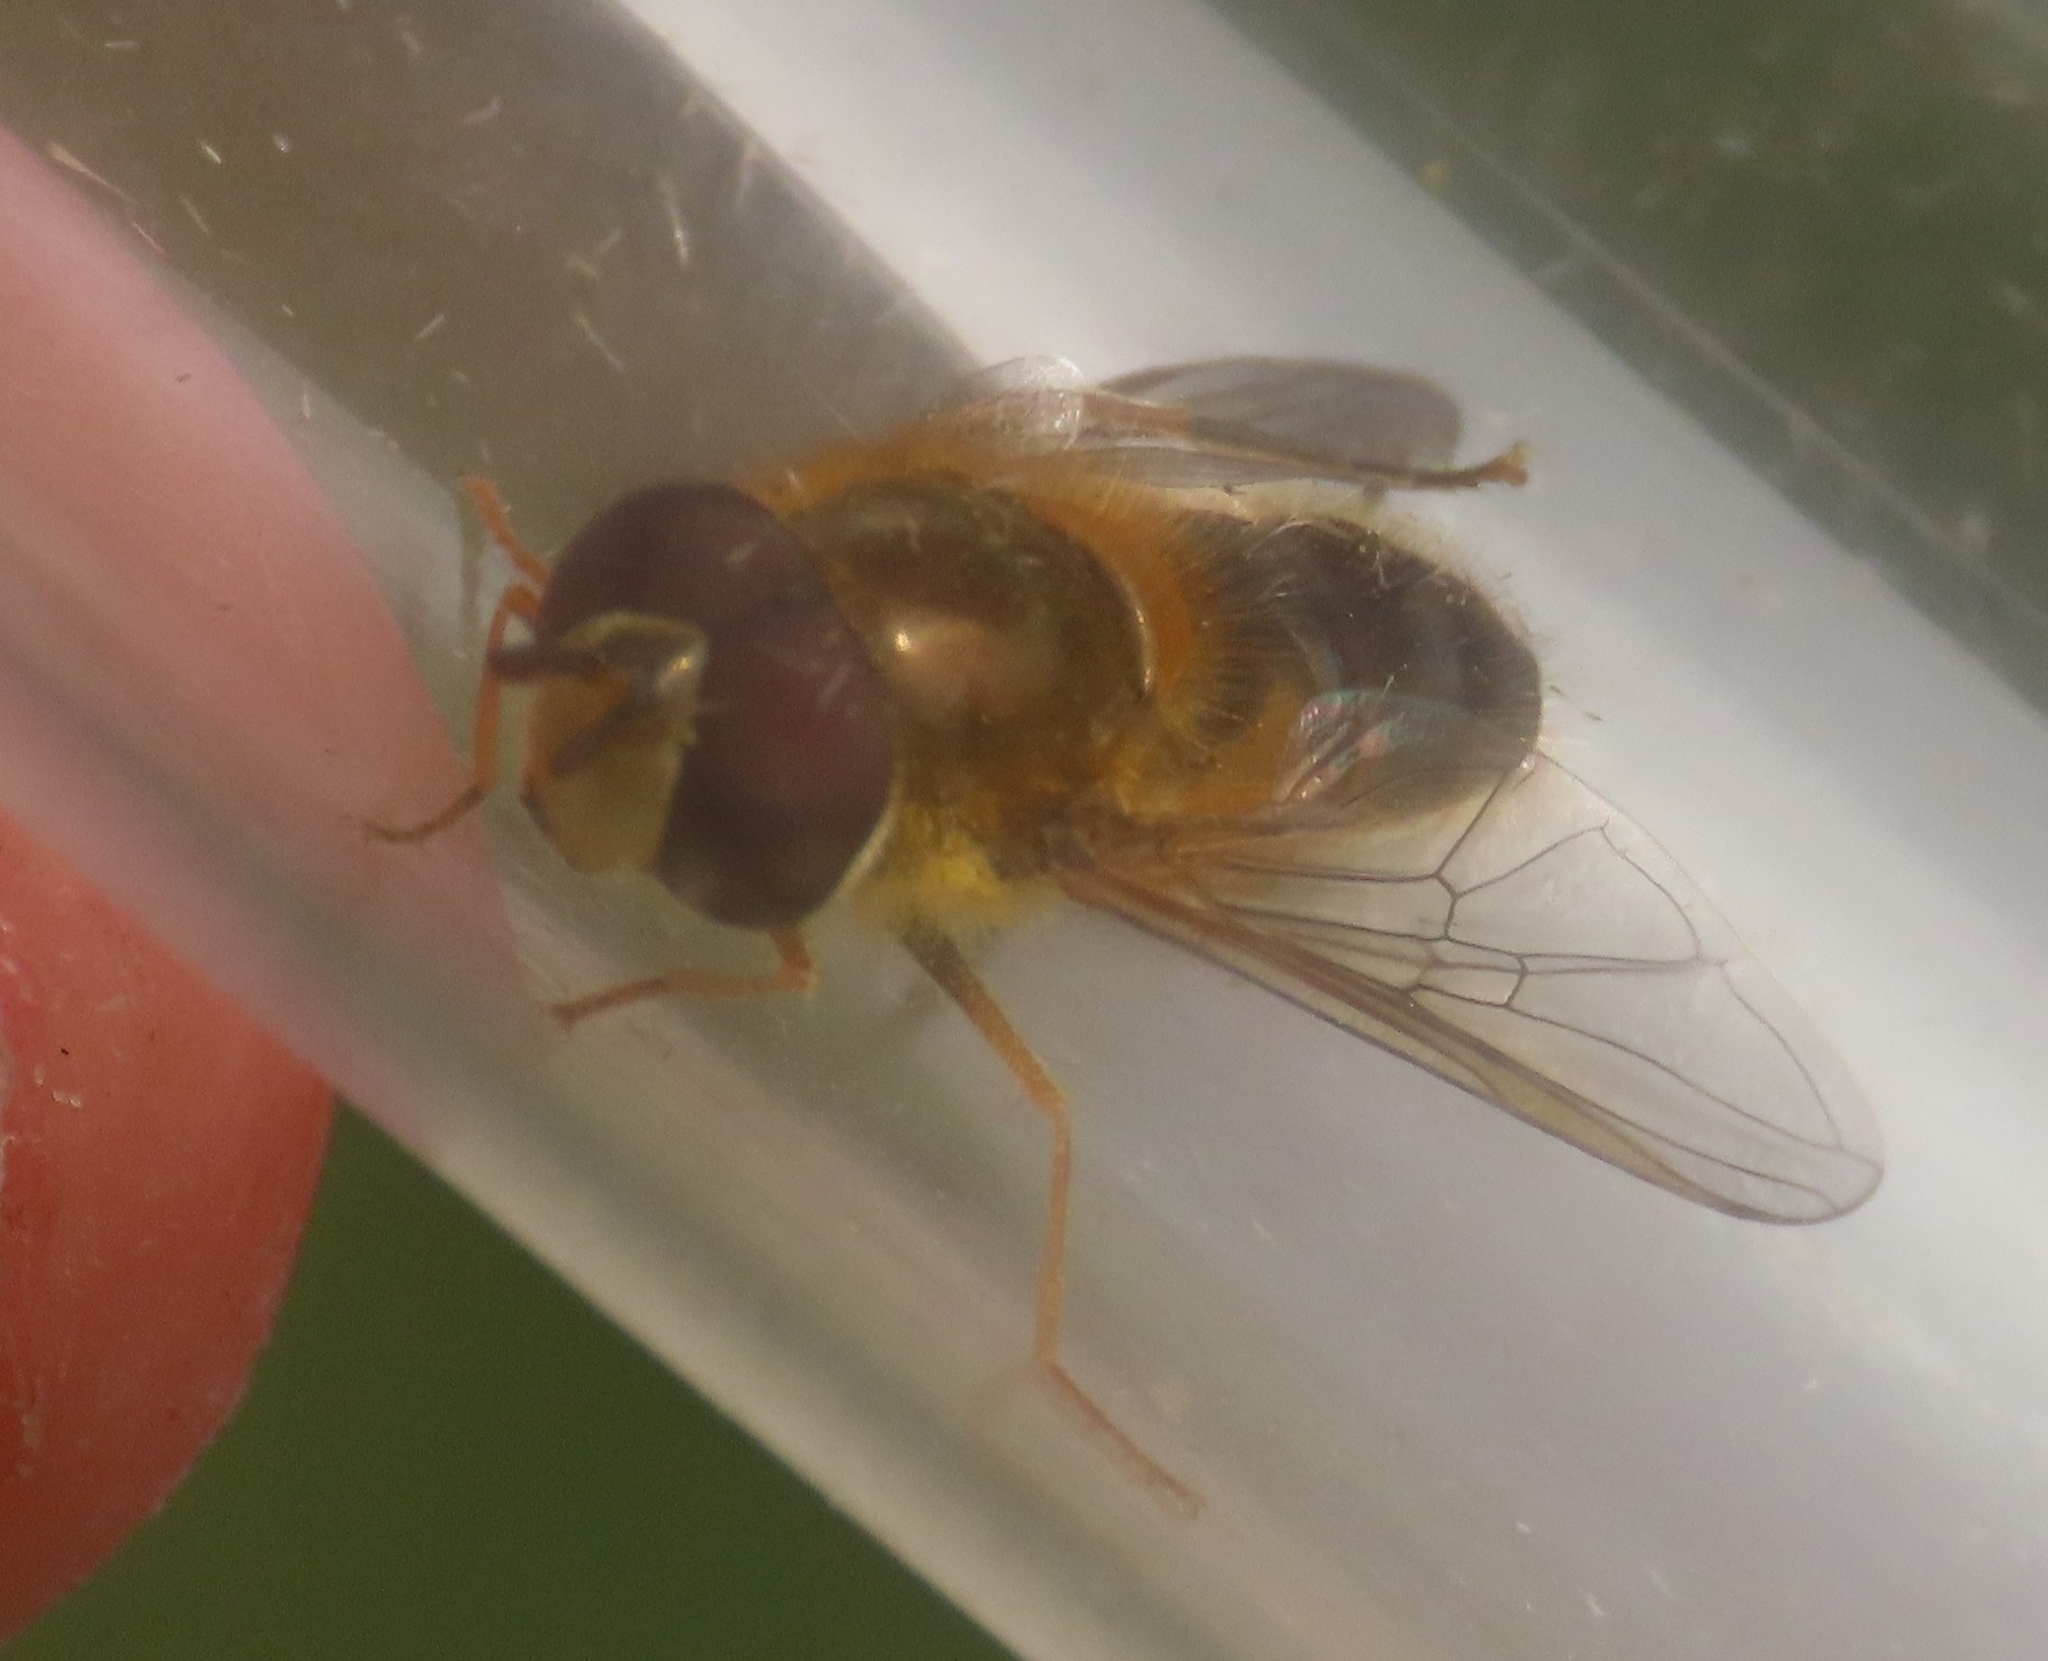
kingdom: Animalia
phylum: Arthropoda
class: Insecta
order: Diptera
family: Syrphidae
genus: Epistrophe
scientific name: Epistrophe eligans
